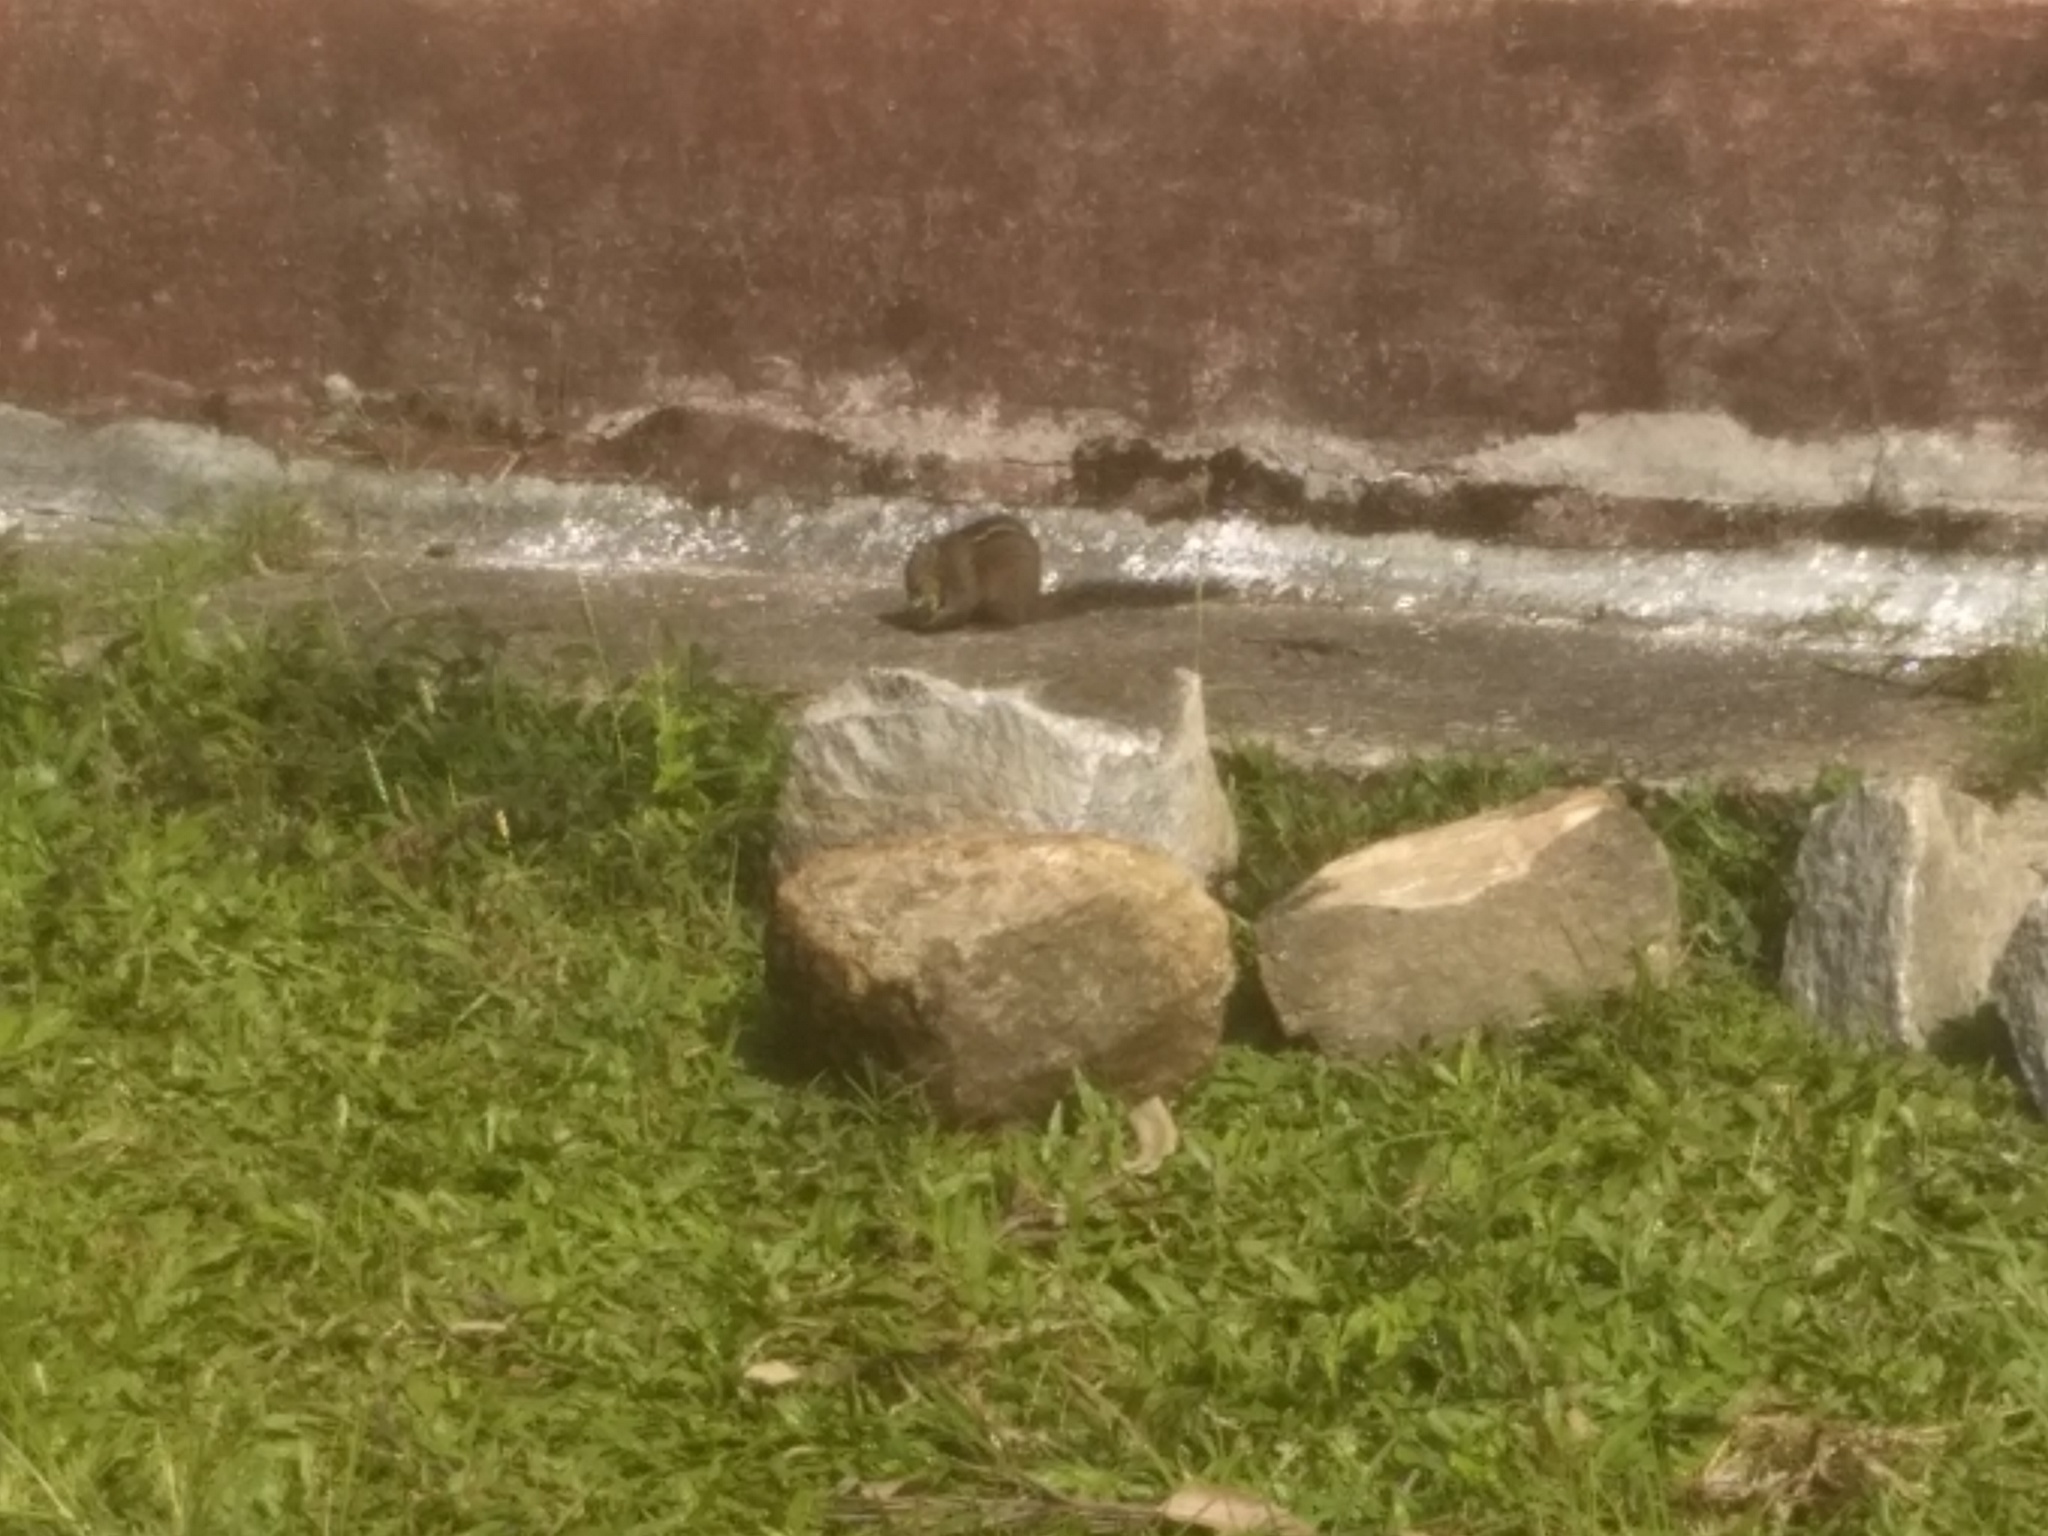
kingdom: Animalia
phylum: Chordata
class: Mammalia
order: Rodentia
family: Sciuridae
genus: Funambulus
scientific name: Funambulus tristriatus
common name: Jungle palm squirrel
